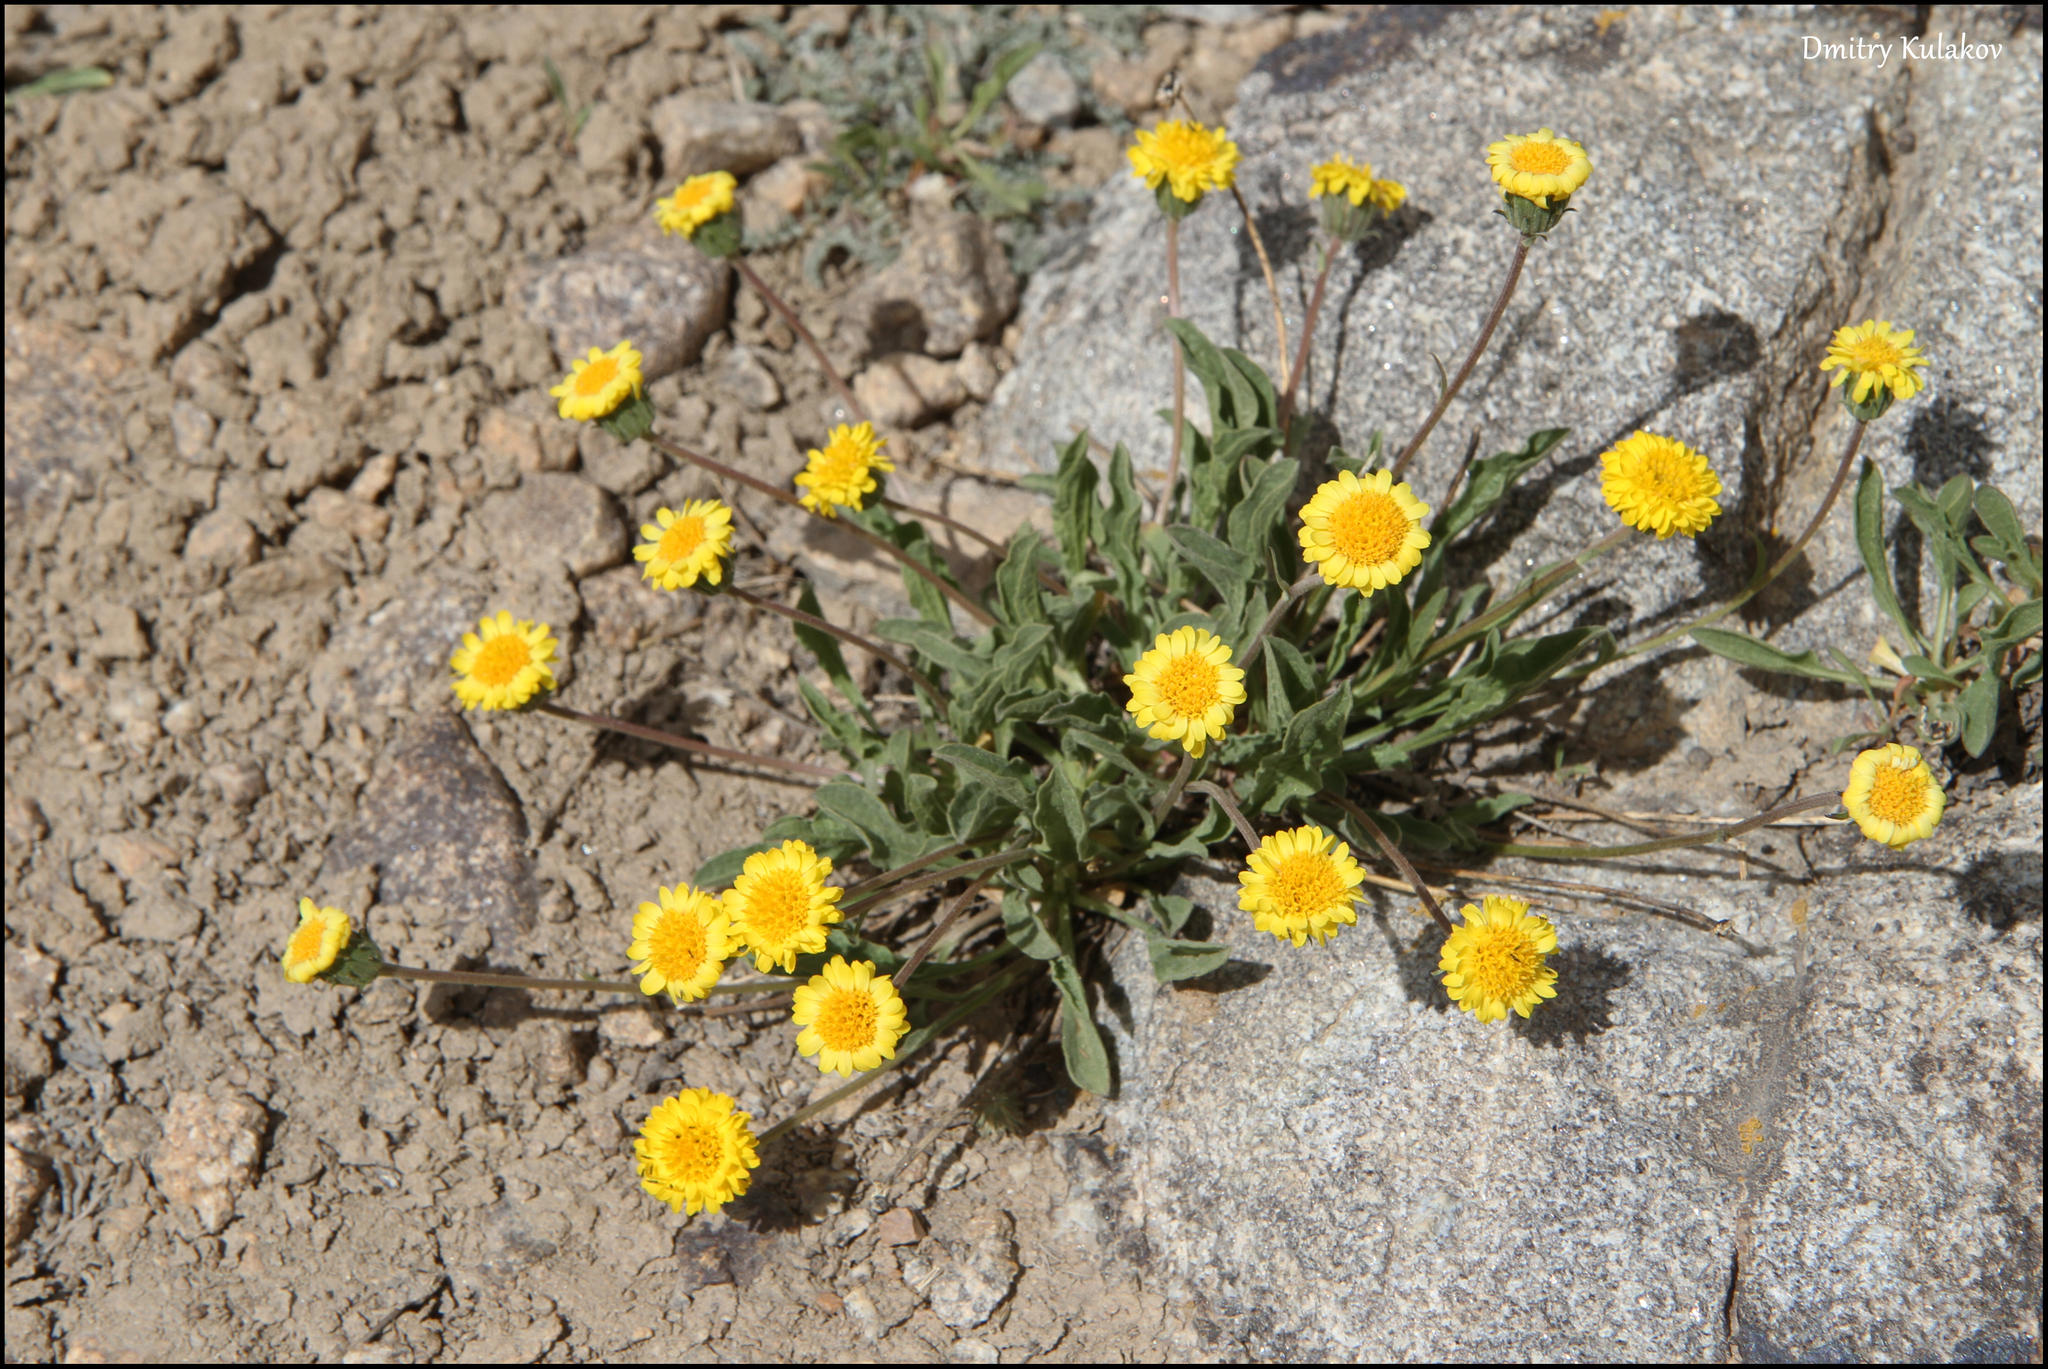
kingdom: Plantae
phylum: Tracheophyta
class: Magnoliopsida
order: Asterales
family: Asteraceae
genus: Psychrogeton
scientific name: Psychrogeton cabulicus
